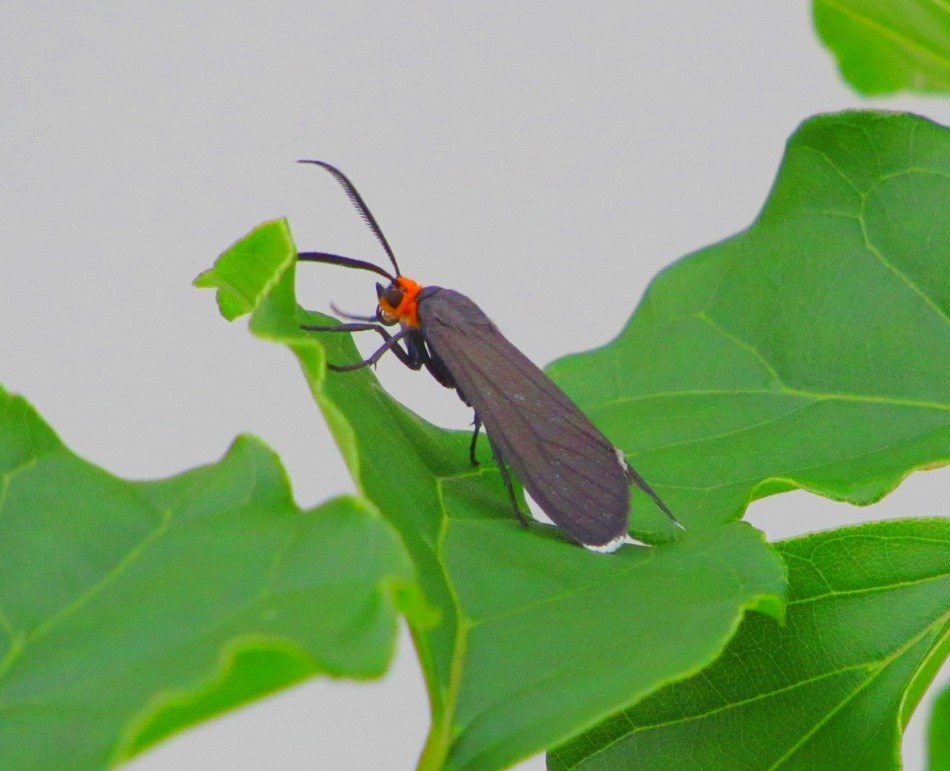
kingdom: Animalia
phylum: Arthropoda
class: Insecta
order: Lepidoptera
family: Erebidae
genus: Ctenucha
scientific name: Ctenucha rubriceps
